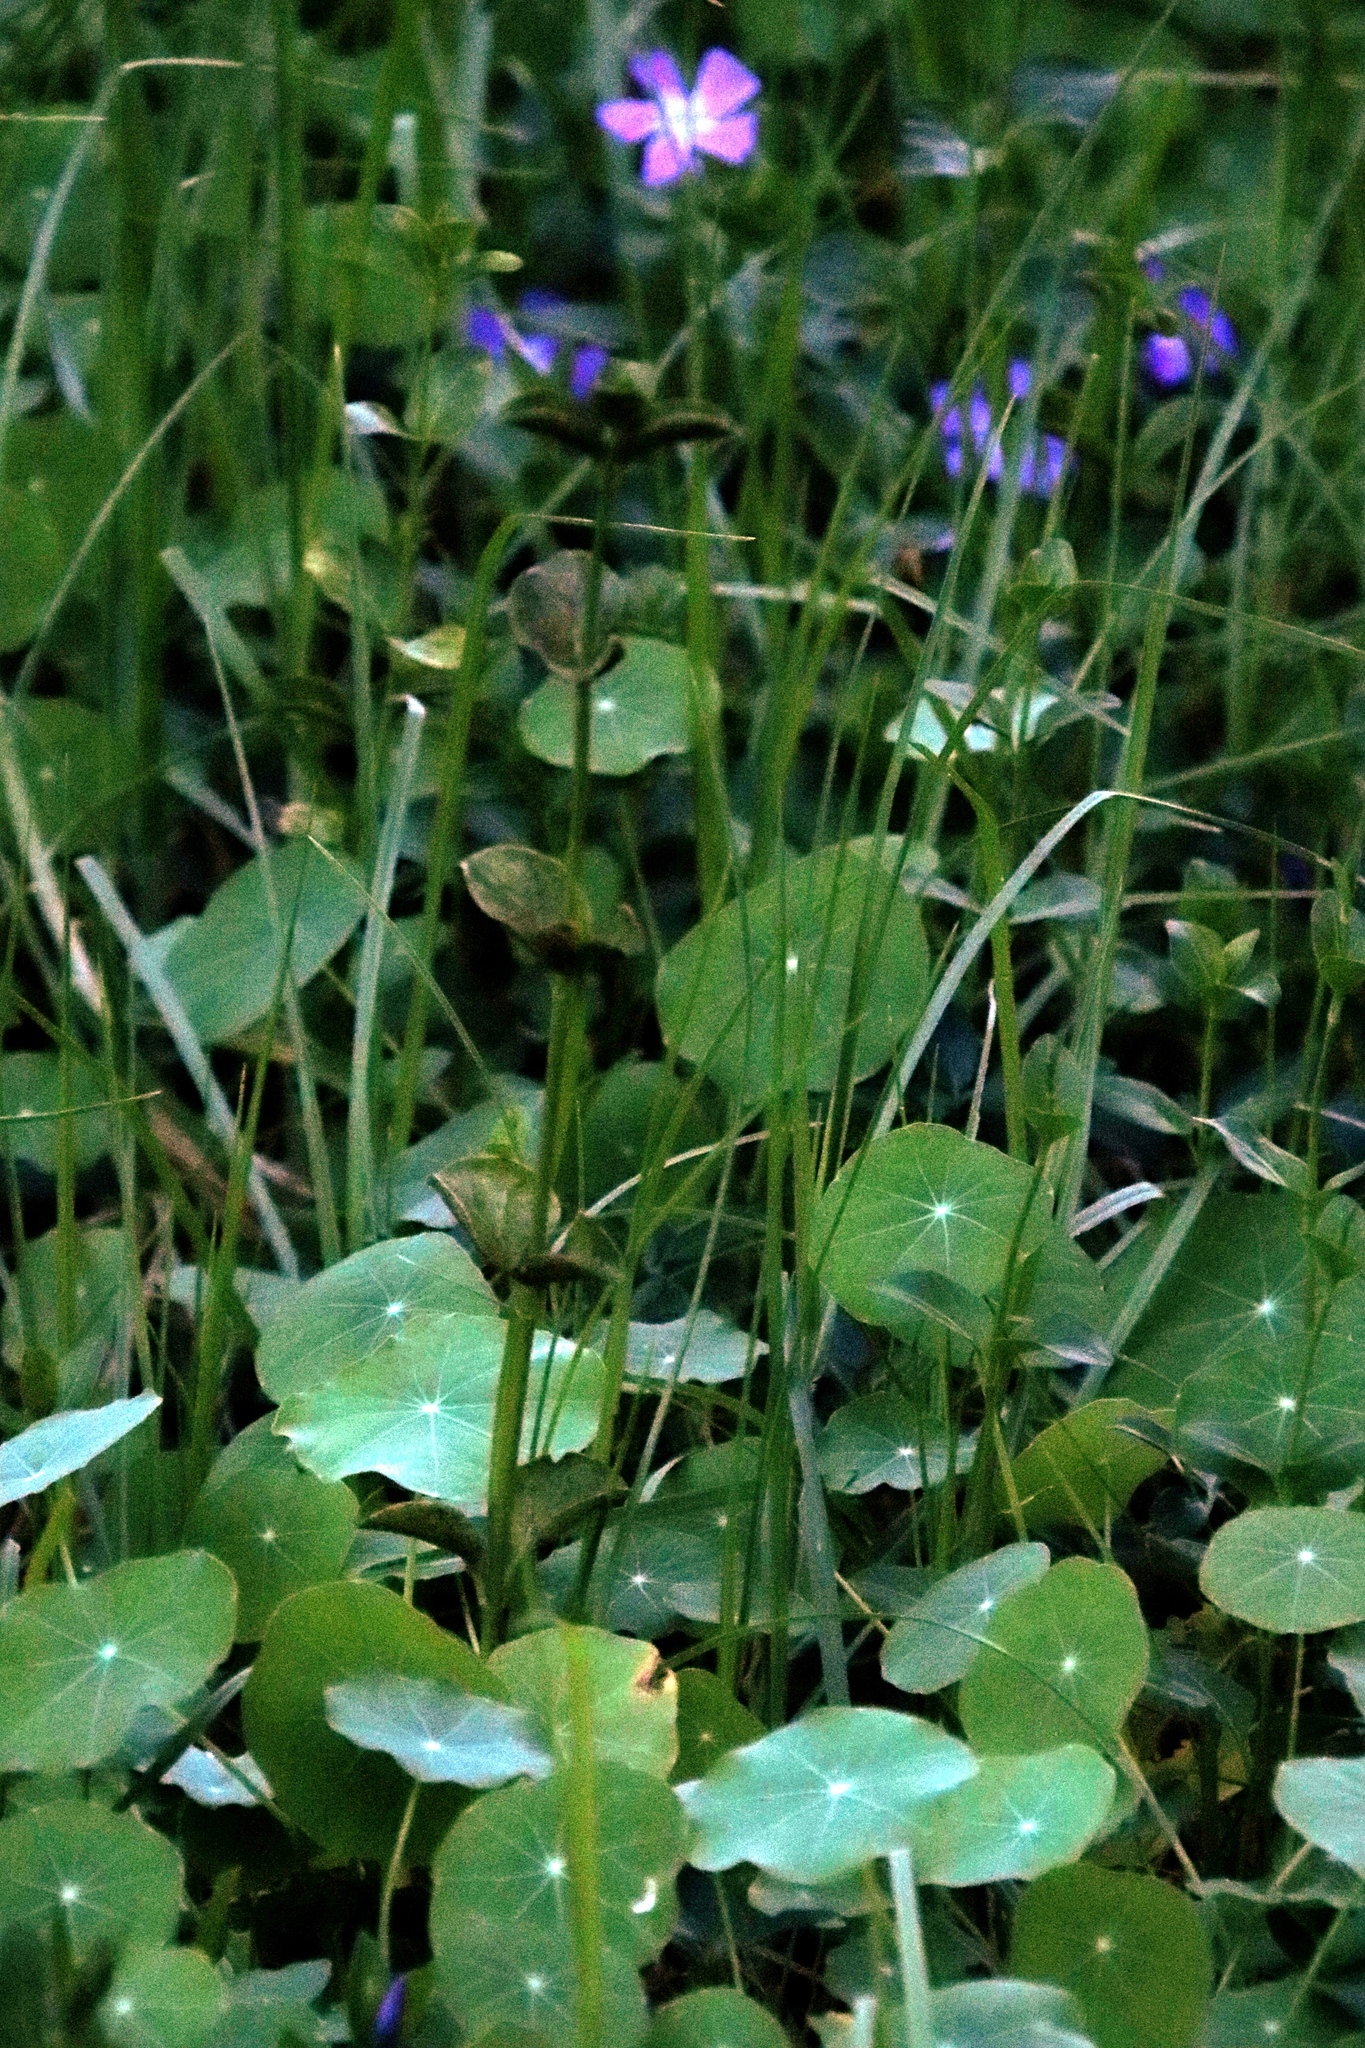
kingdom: Plantae
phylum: Tracheophyta
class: Magnoliopsida
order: Brassicales
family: Tropaeolaceae
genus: Tropaeolum
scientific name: Tropaeolum majus
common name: Nasturtium
